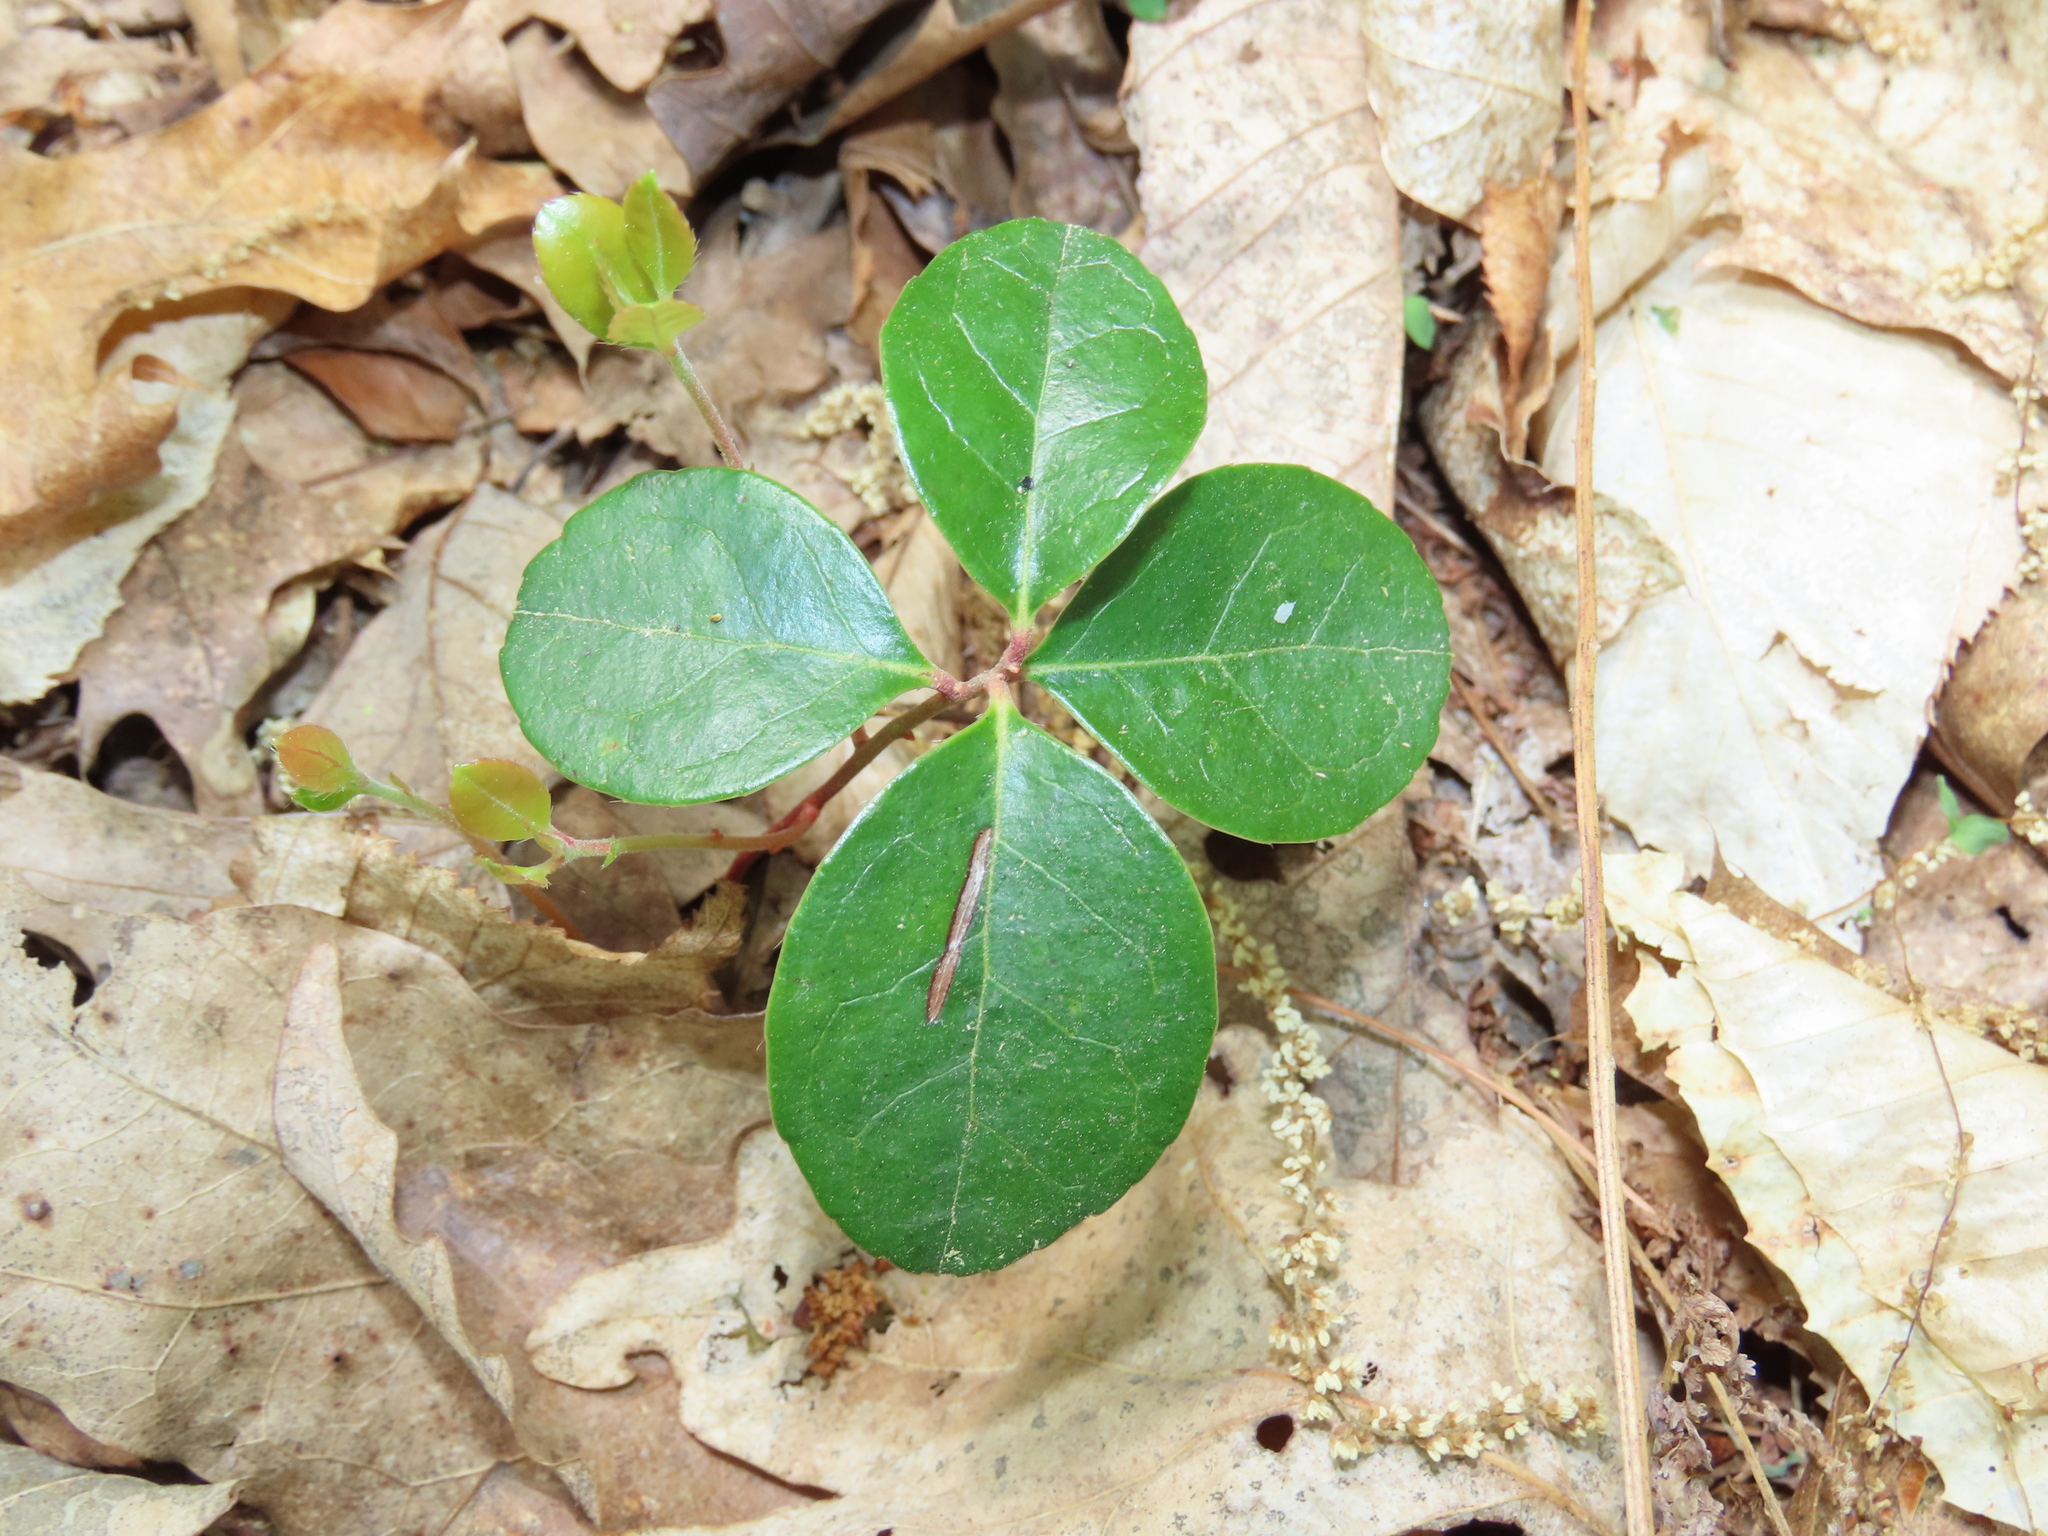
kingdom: Plantae
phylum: Tracheophyta
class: Magnoliopsida
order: Ericales
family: Ericaceae
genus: Gaultheria
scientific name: Gaultheria procumbens
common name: Checkerberry
